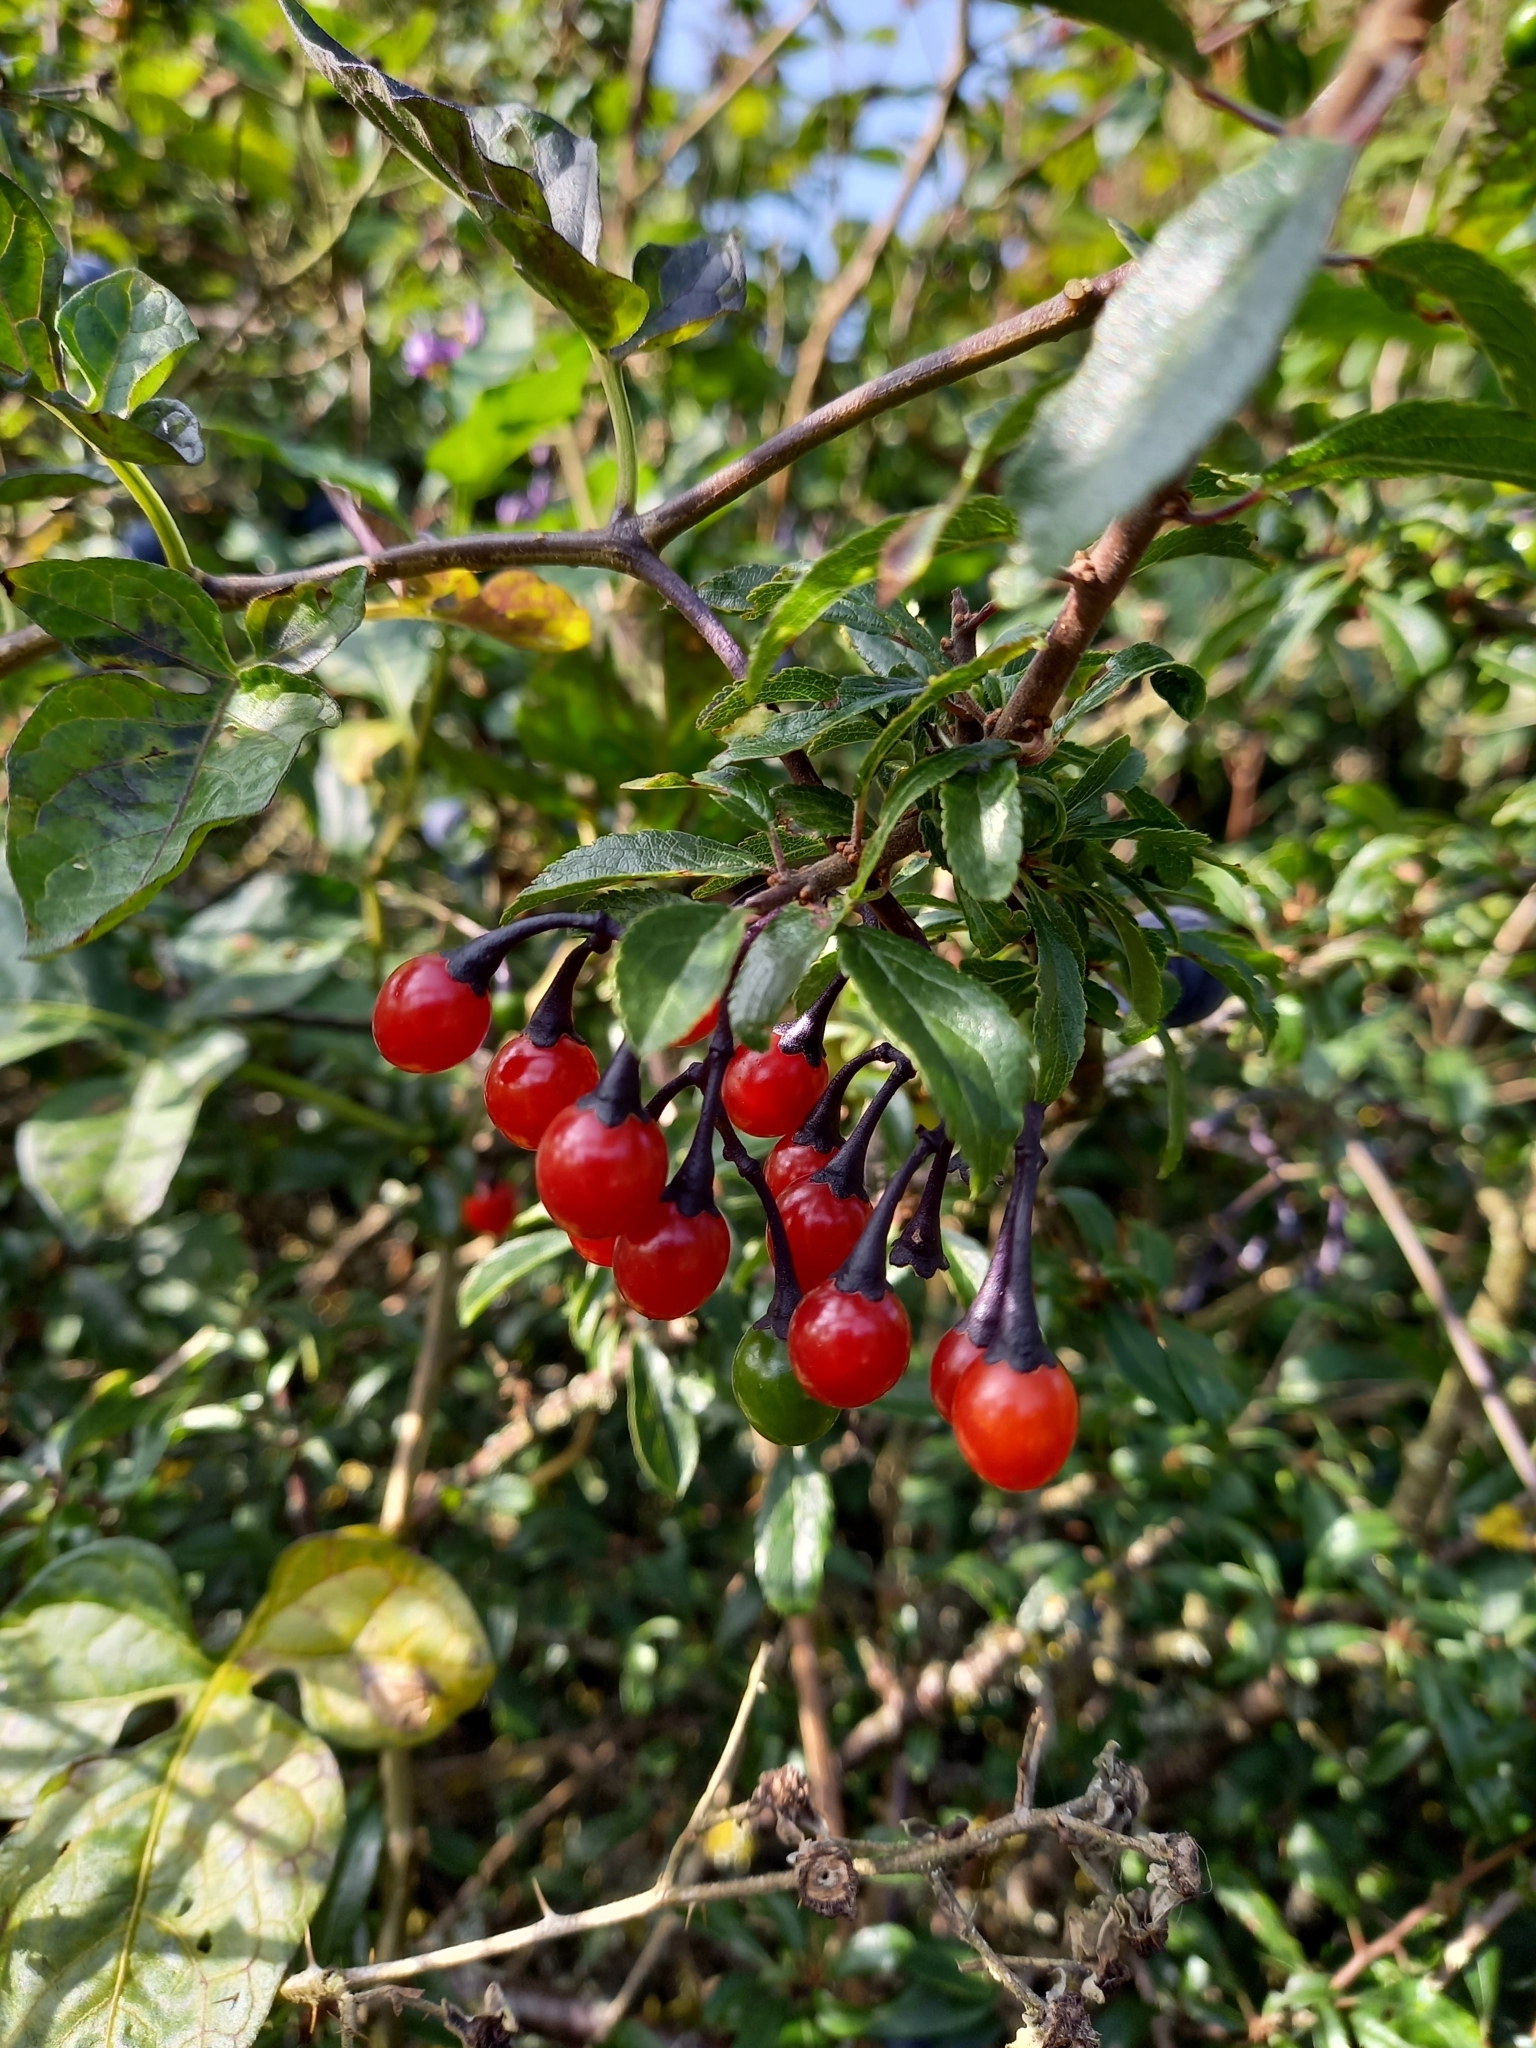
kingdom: Plantae
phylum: Tracheophyta
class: Magnoliopsida
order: Solanales
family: Solanaceae
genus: Solanum
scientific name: Solanum dulcamara
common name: Climbing nightshade
